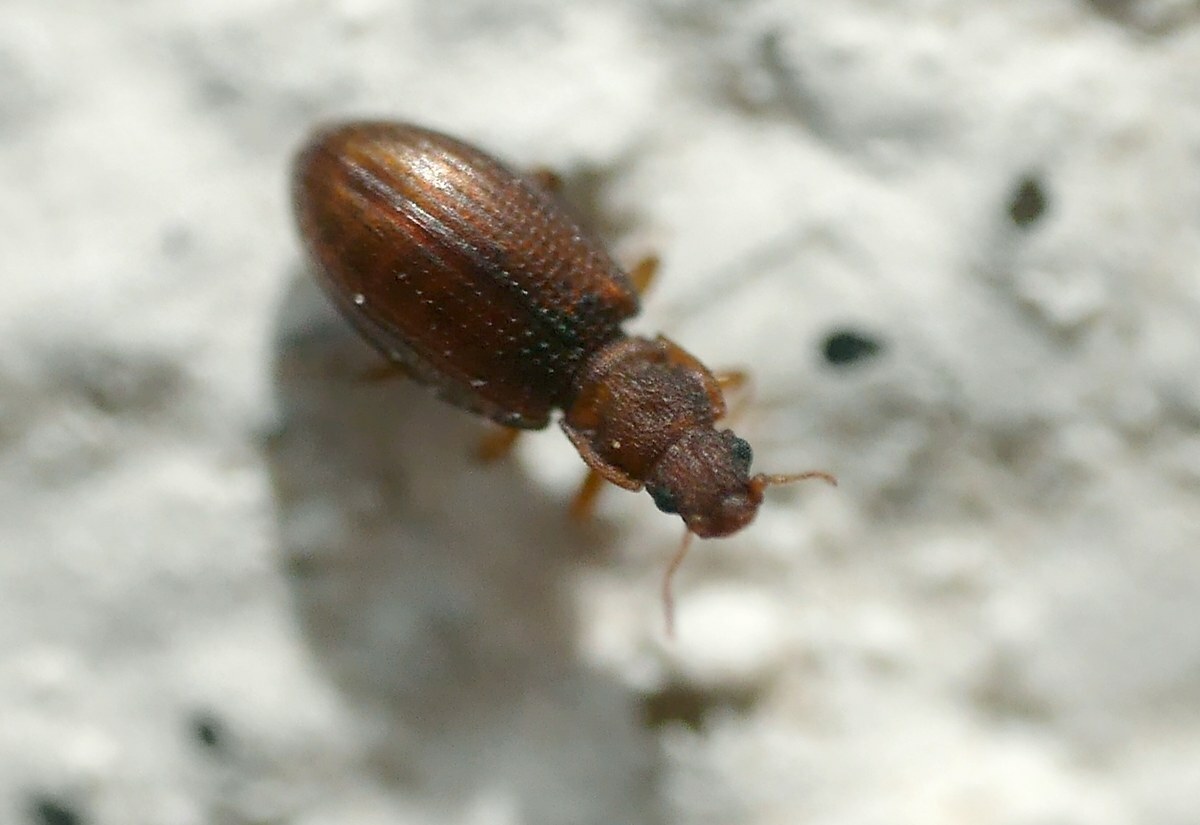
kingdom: Animalia
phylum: Arthropoda
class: Insecta
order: Coleoptera
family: Latridiidae
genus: Enicmus
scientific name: Enicmus histrio
